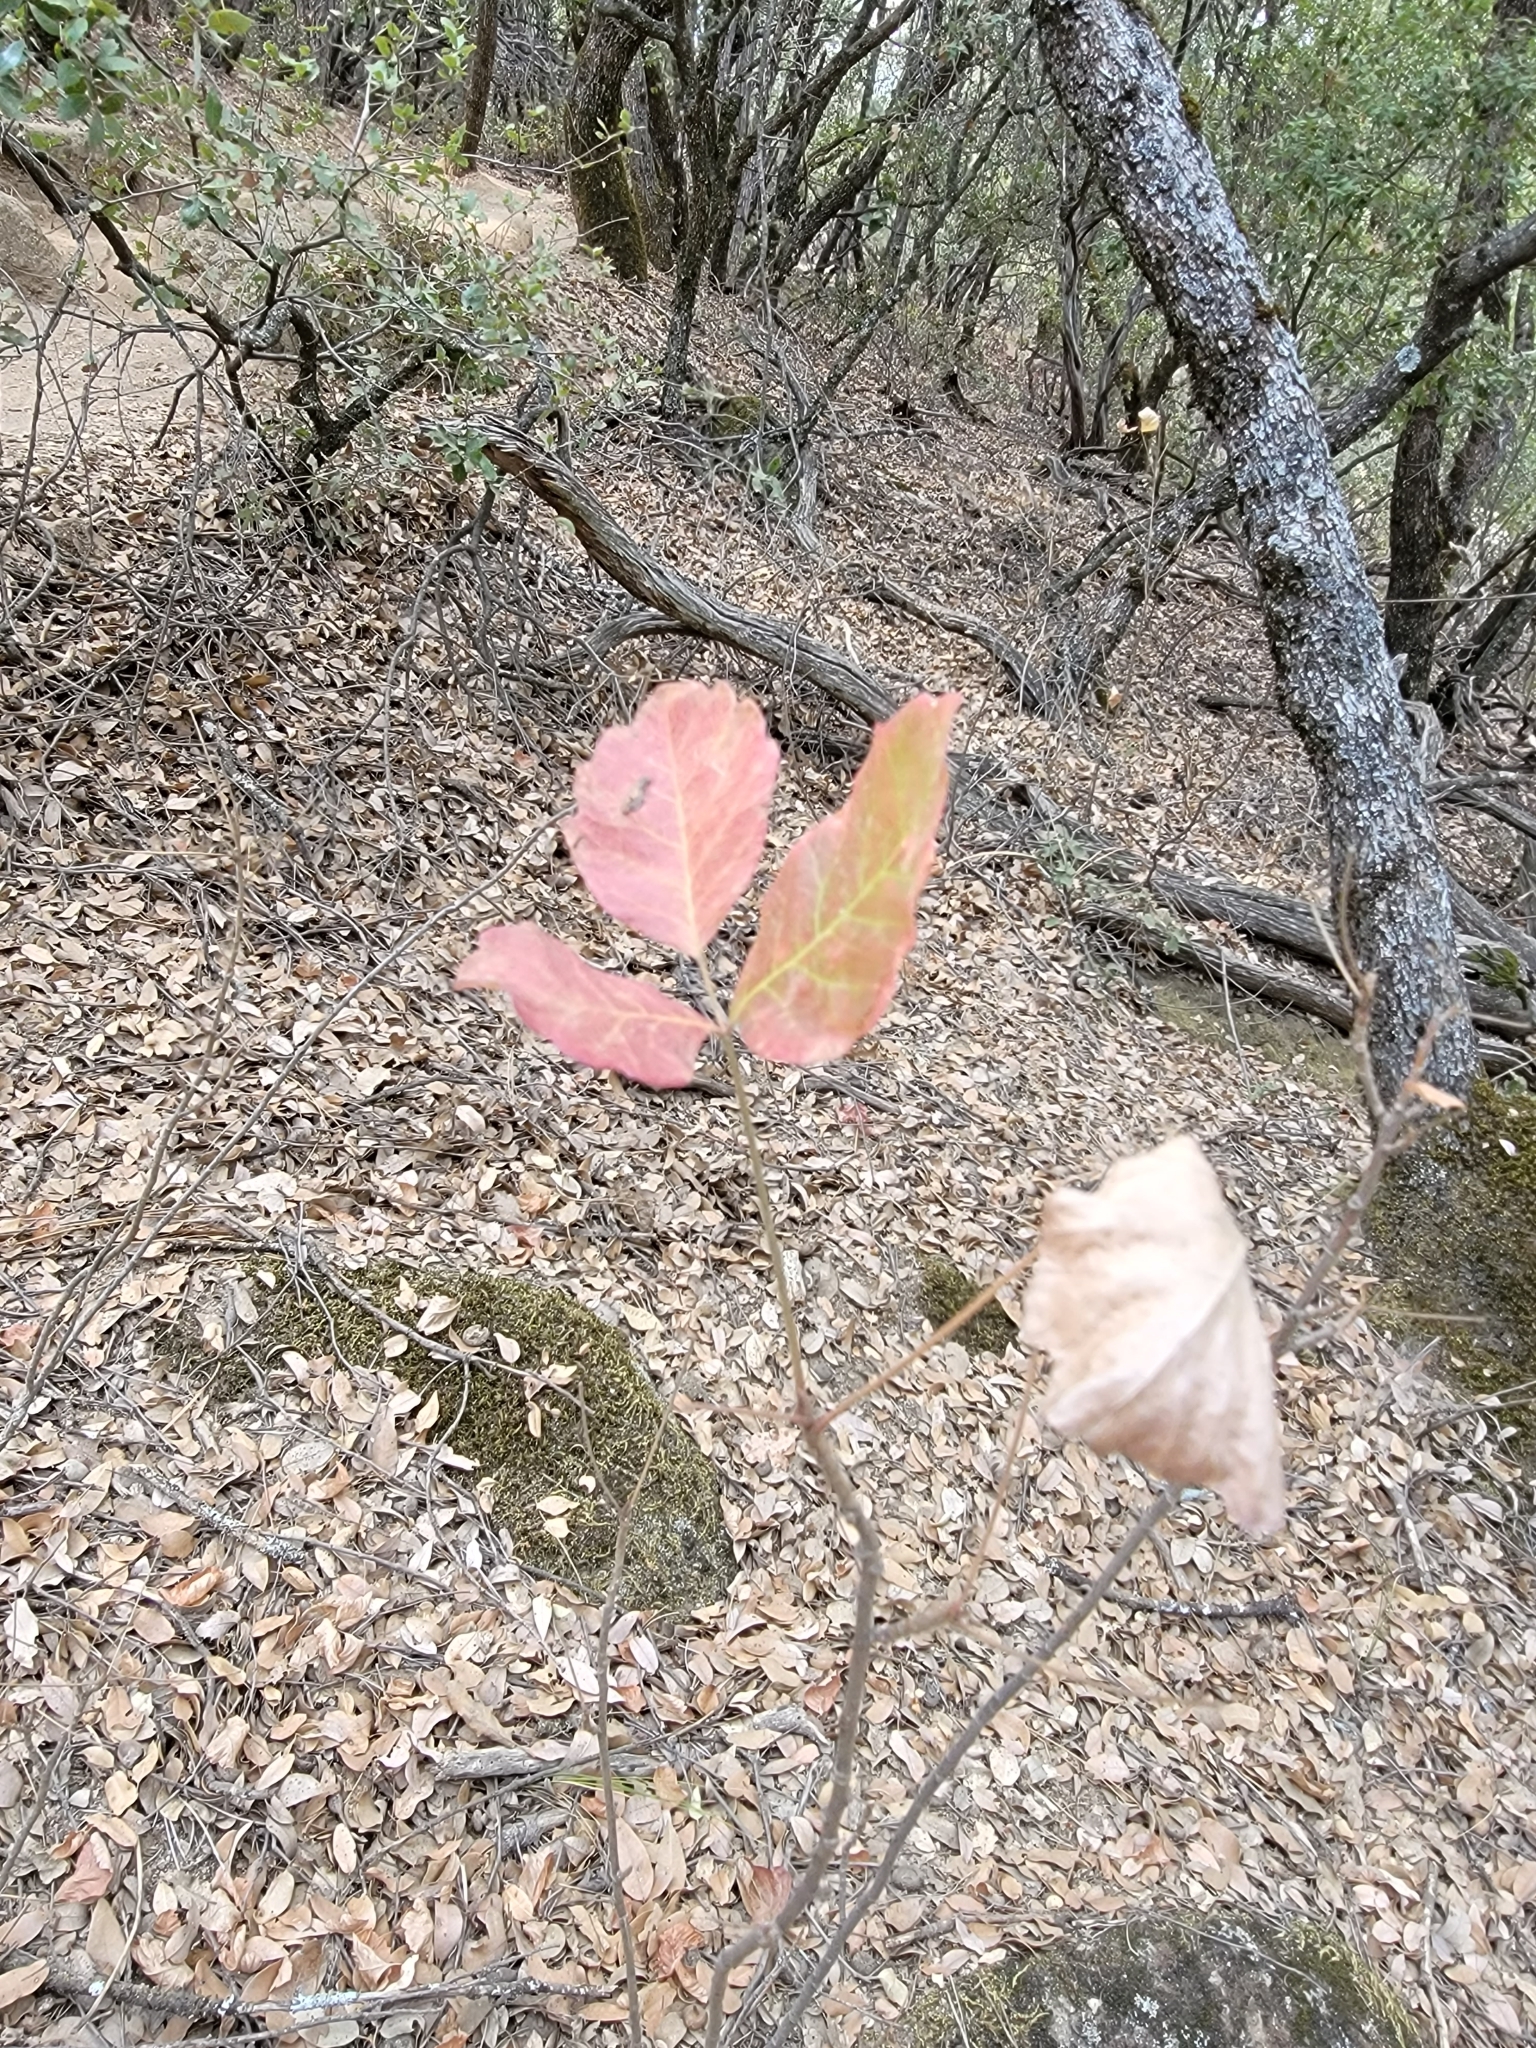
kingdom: Plantae
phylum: Tracheophyta
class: Magnoliopsida
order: Sapindales
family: Anacardiaceae
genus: Toxicodendron
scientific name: Toxicodendron diversilobum
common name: Pacific poison-oak
